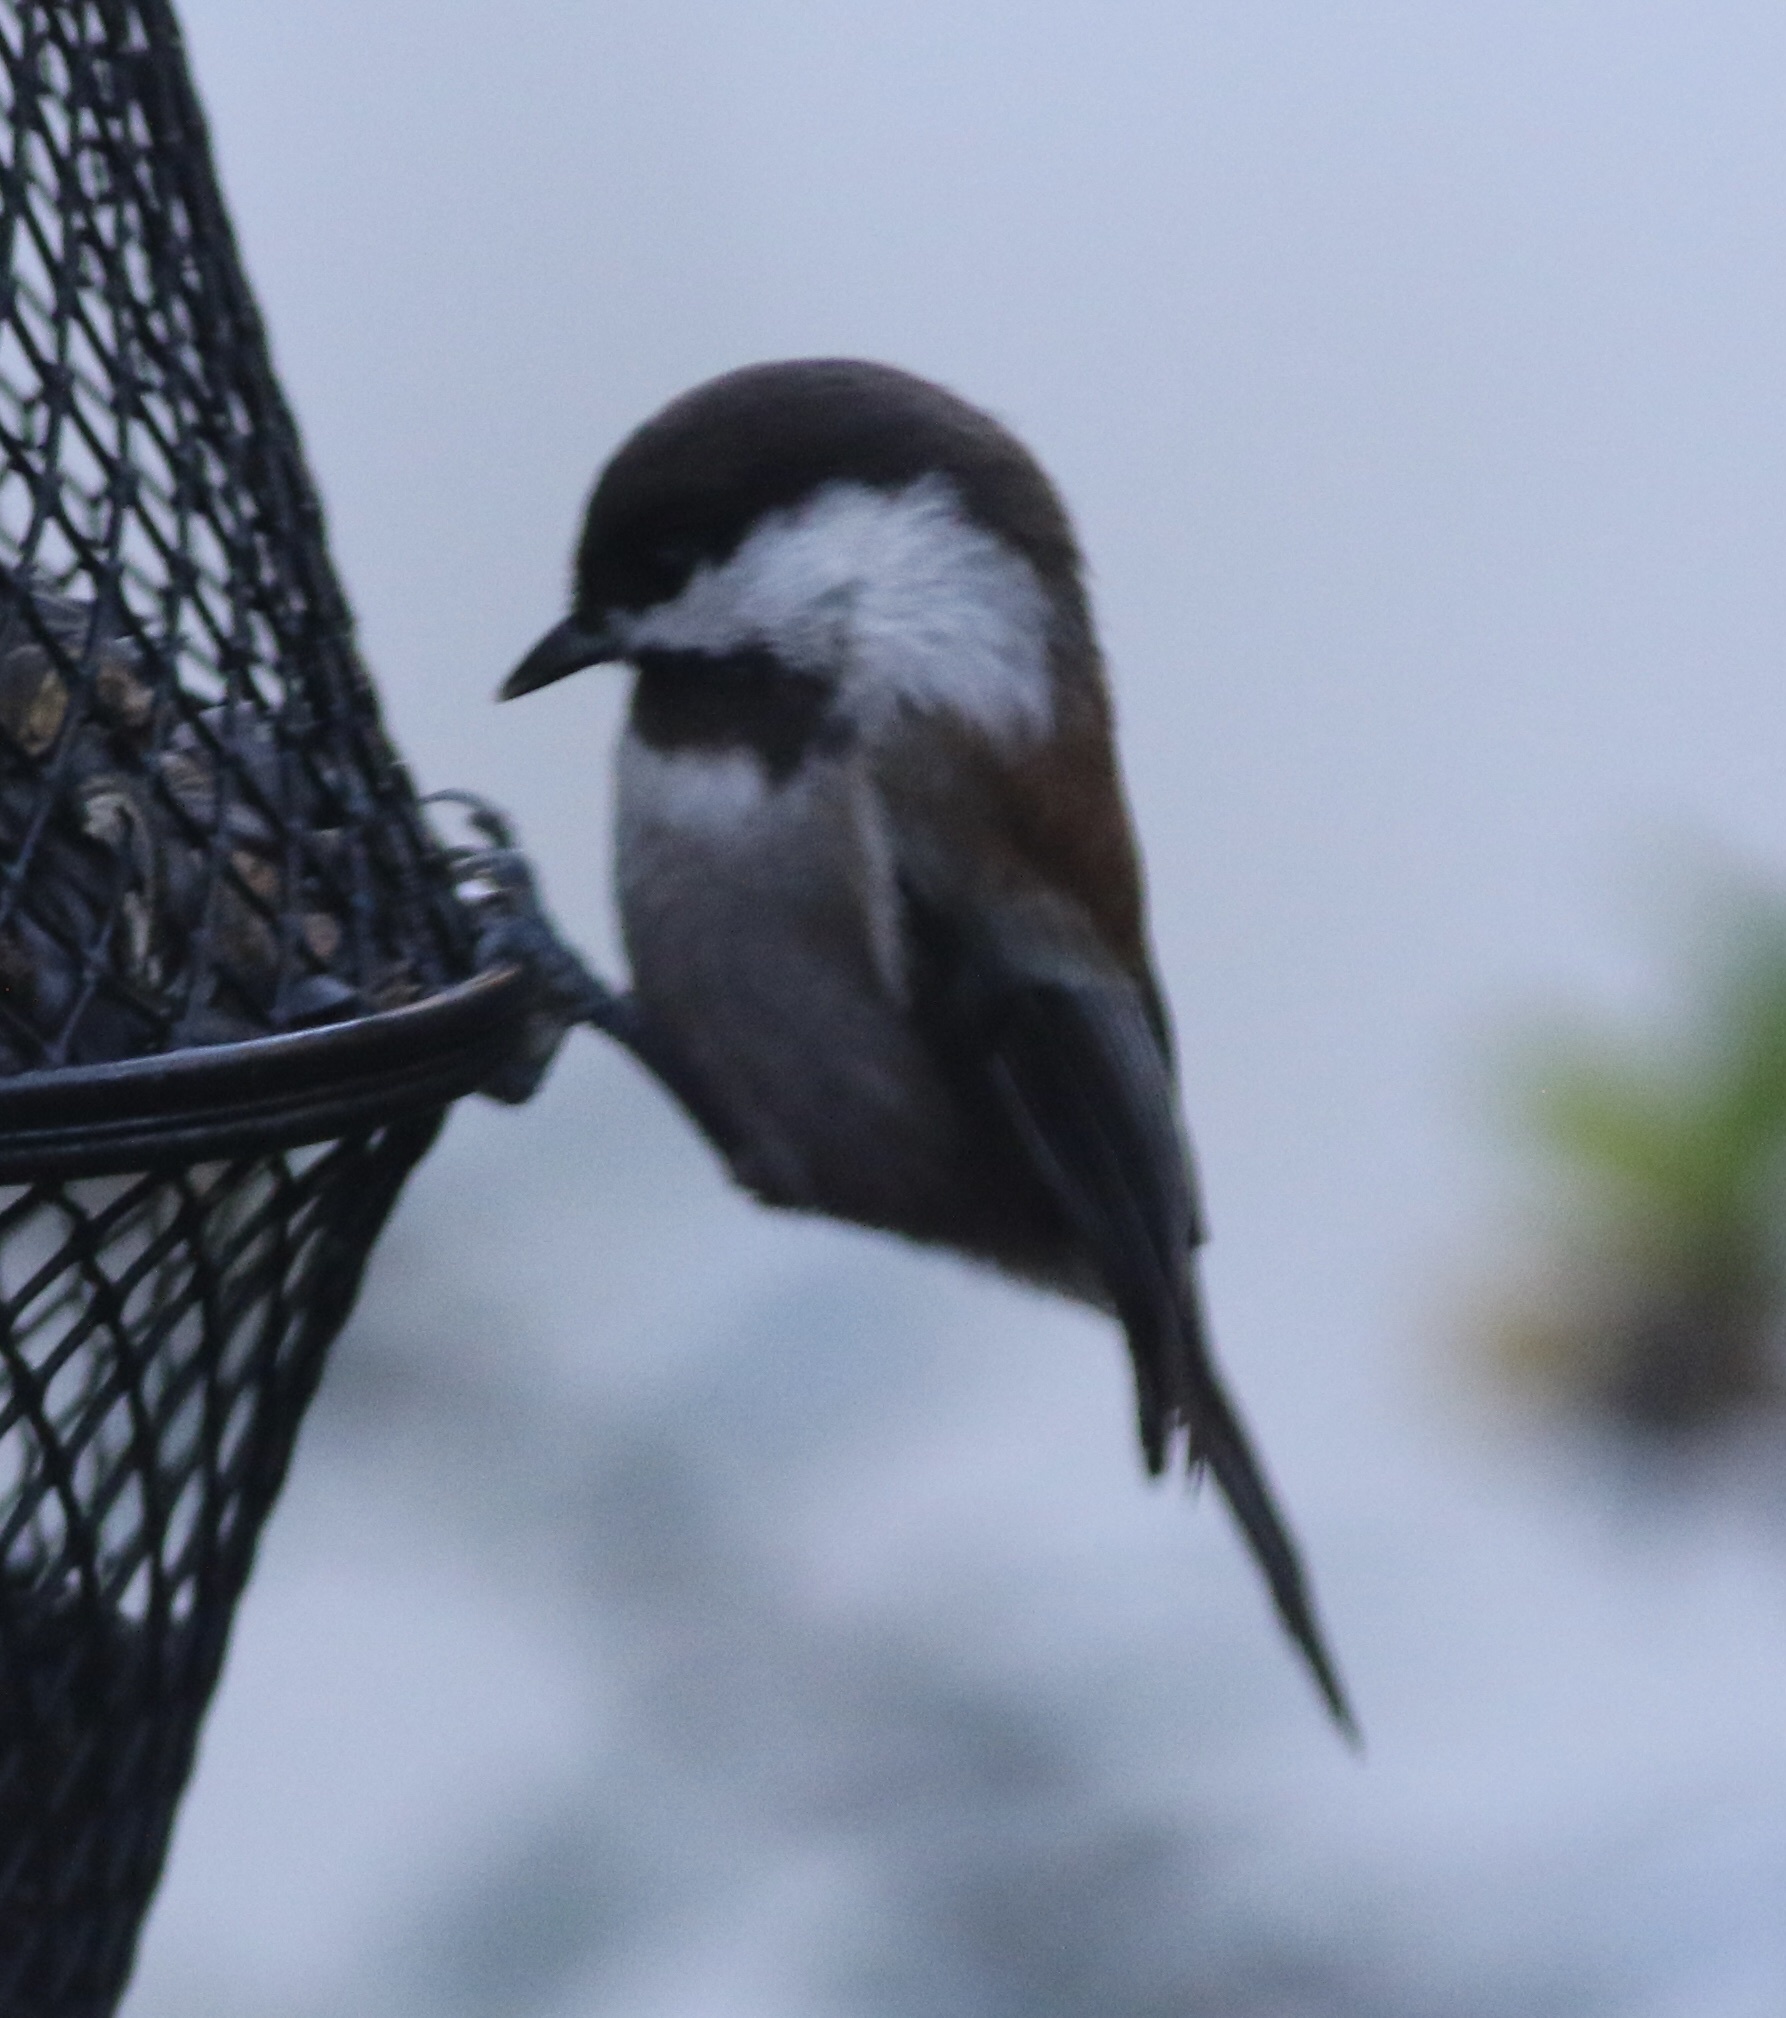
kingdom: Animalia
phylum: Chordata
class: Aves
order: Passeriformes
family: Paridae
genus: Poecile
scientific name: Poecile rufescens
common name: Chestnut-backed chickadee
